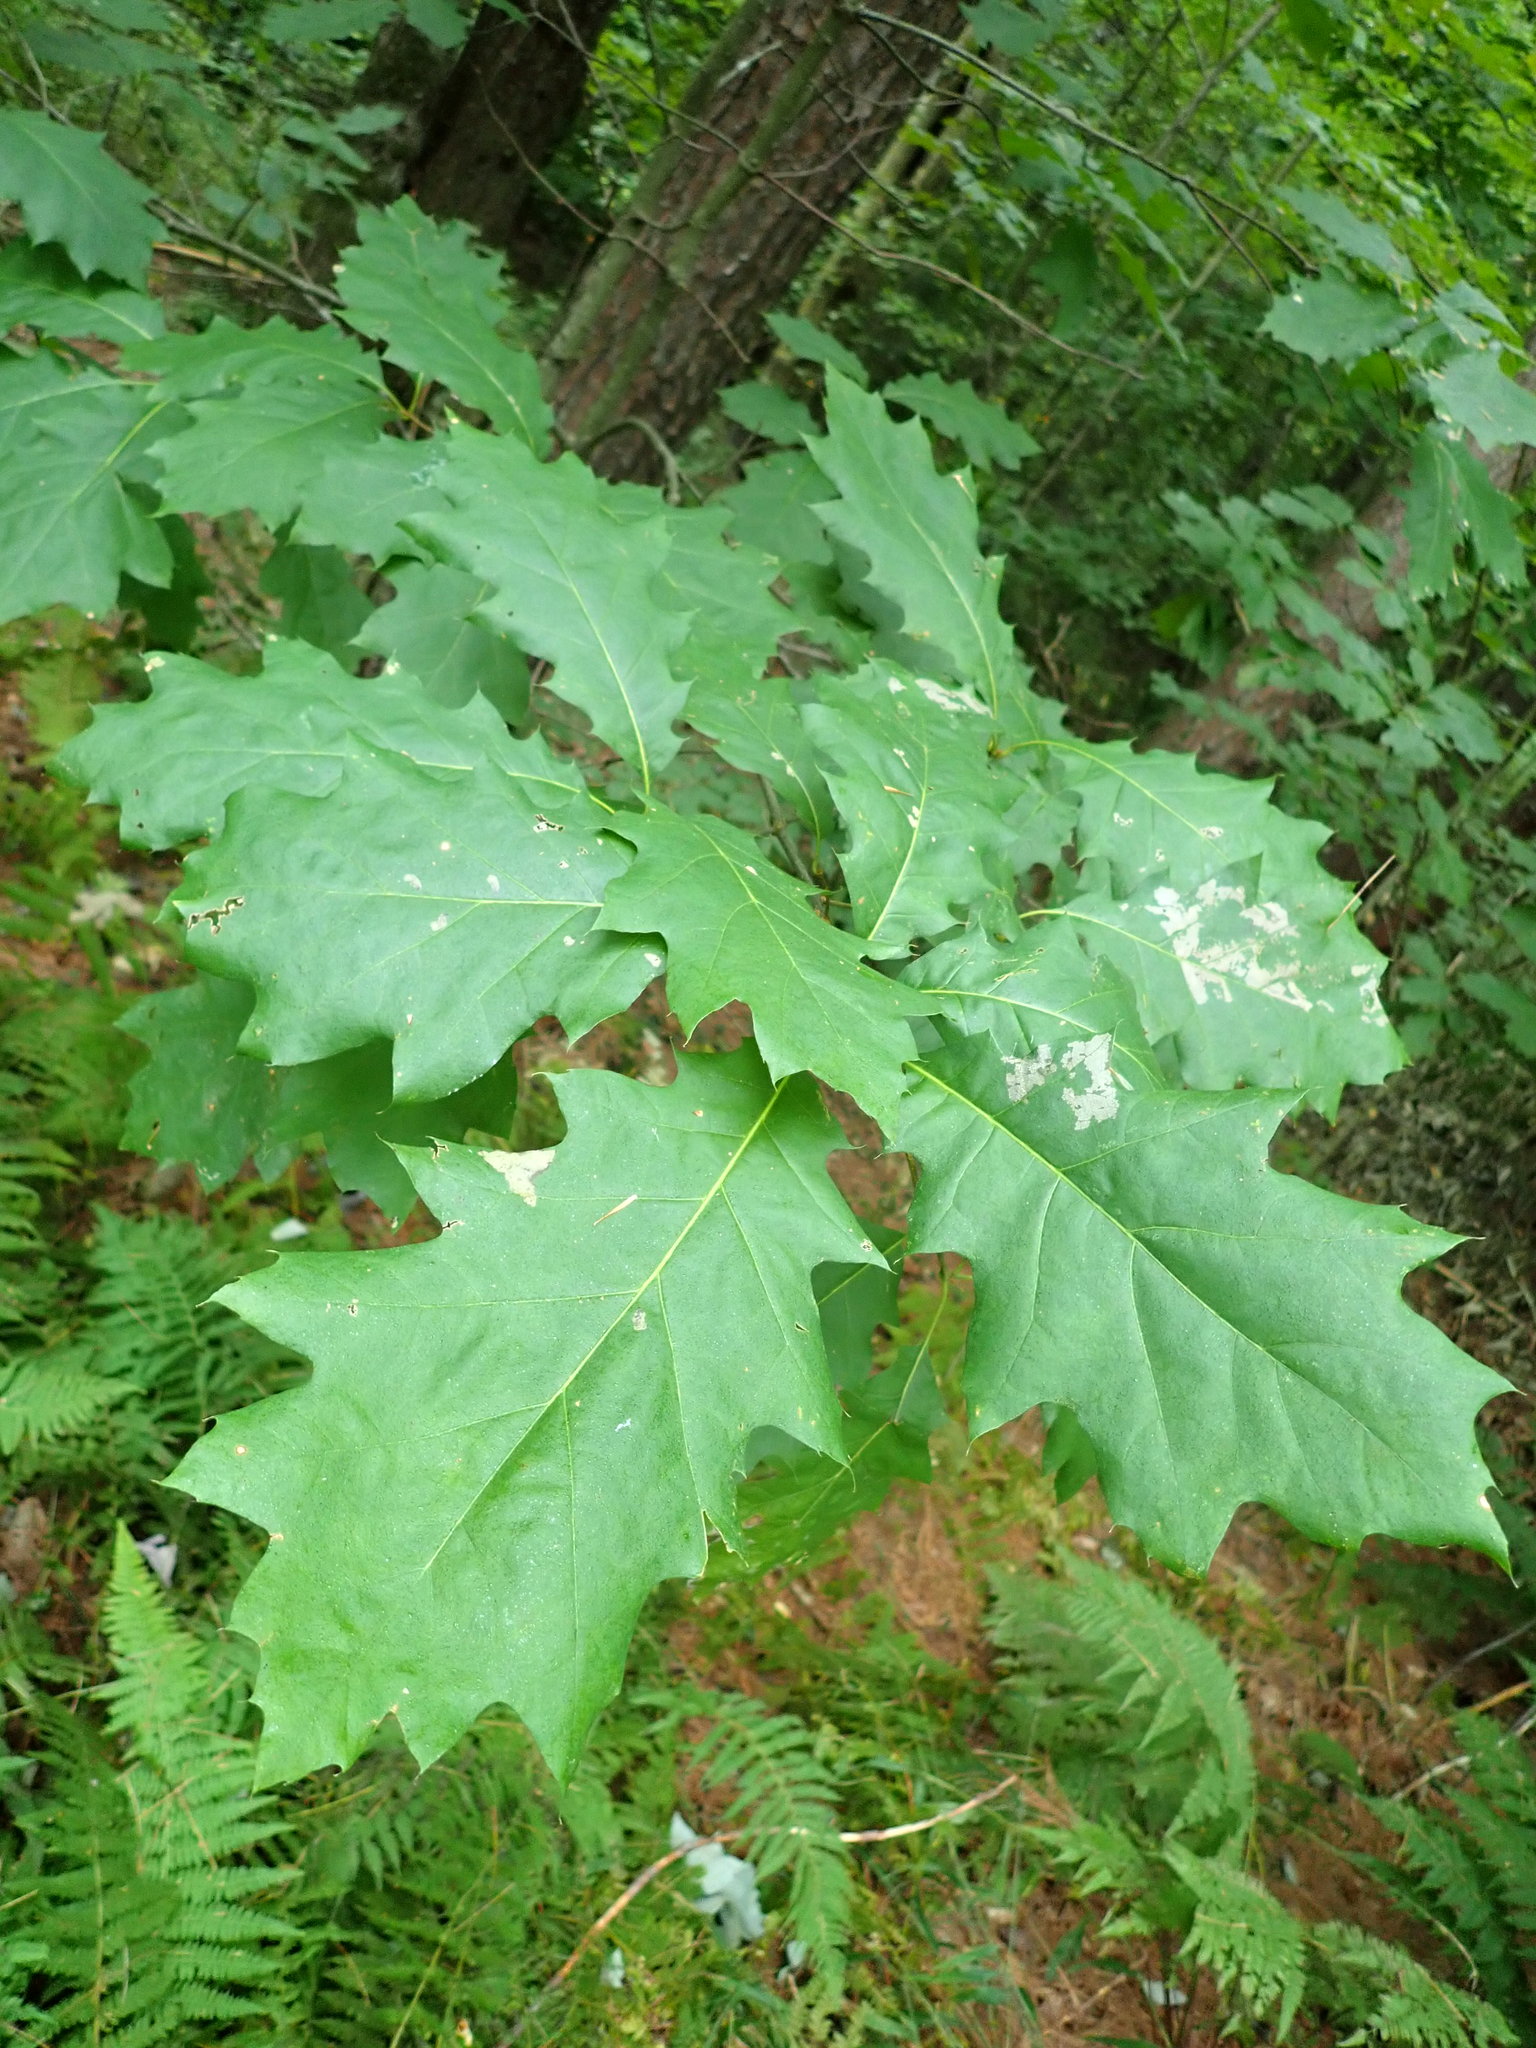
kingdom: Plantae
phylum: Tracheophyta
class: Magnoliopsida
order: Fagales
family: Fagaceae
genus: Quercus
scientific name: Quercus rubra
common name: Red oak
